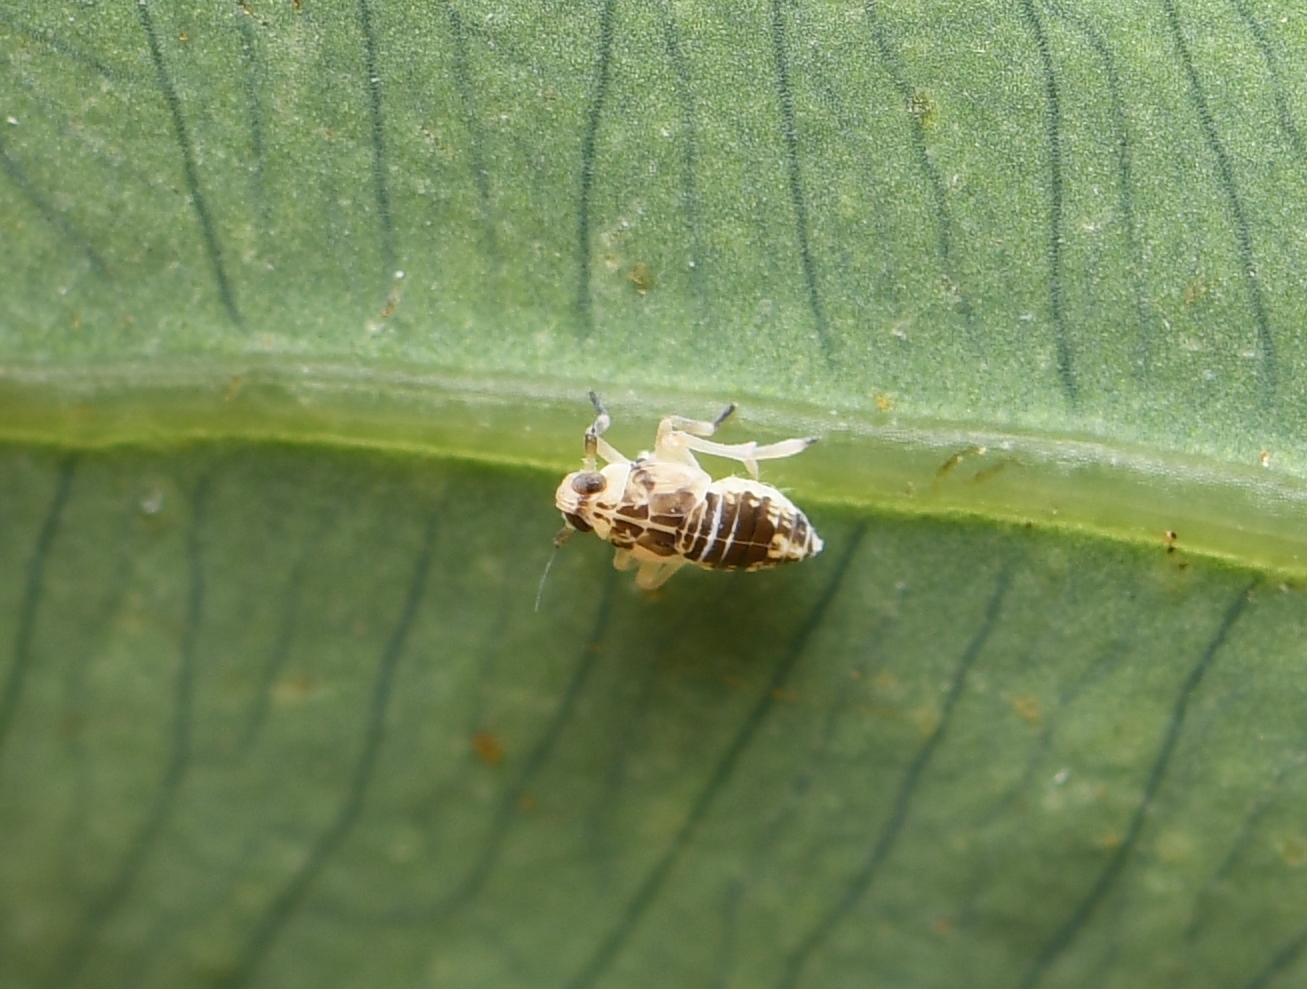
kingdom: Animalia
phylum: Arthropoda
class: Insecta
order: Hemiptera
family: Delphacidae
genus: Tarophagus
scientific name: Tarophagus colocasiae
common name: Taro planthopper
